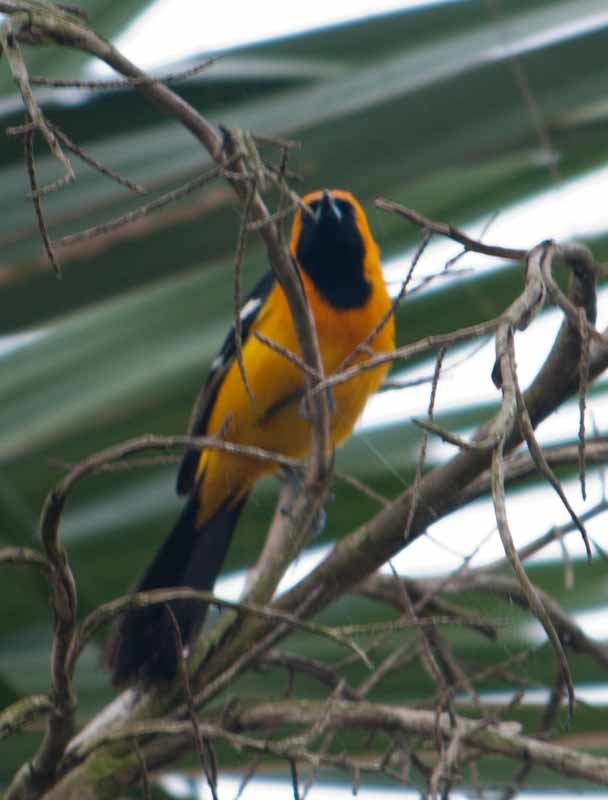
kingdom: Animalia
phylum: Chordata
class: Aves
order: Passeriformes
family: Icteridae
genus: Icterus
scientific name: Icterus cucullatus
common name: Hooded oriole
